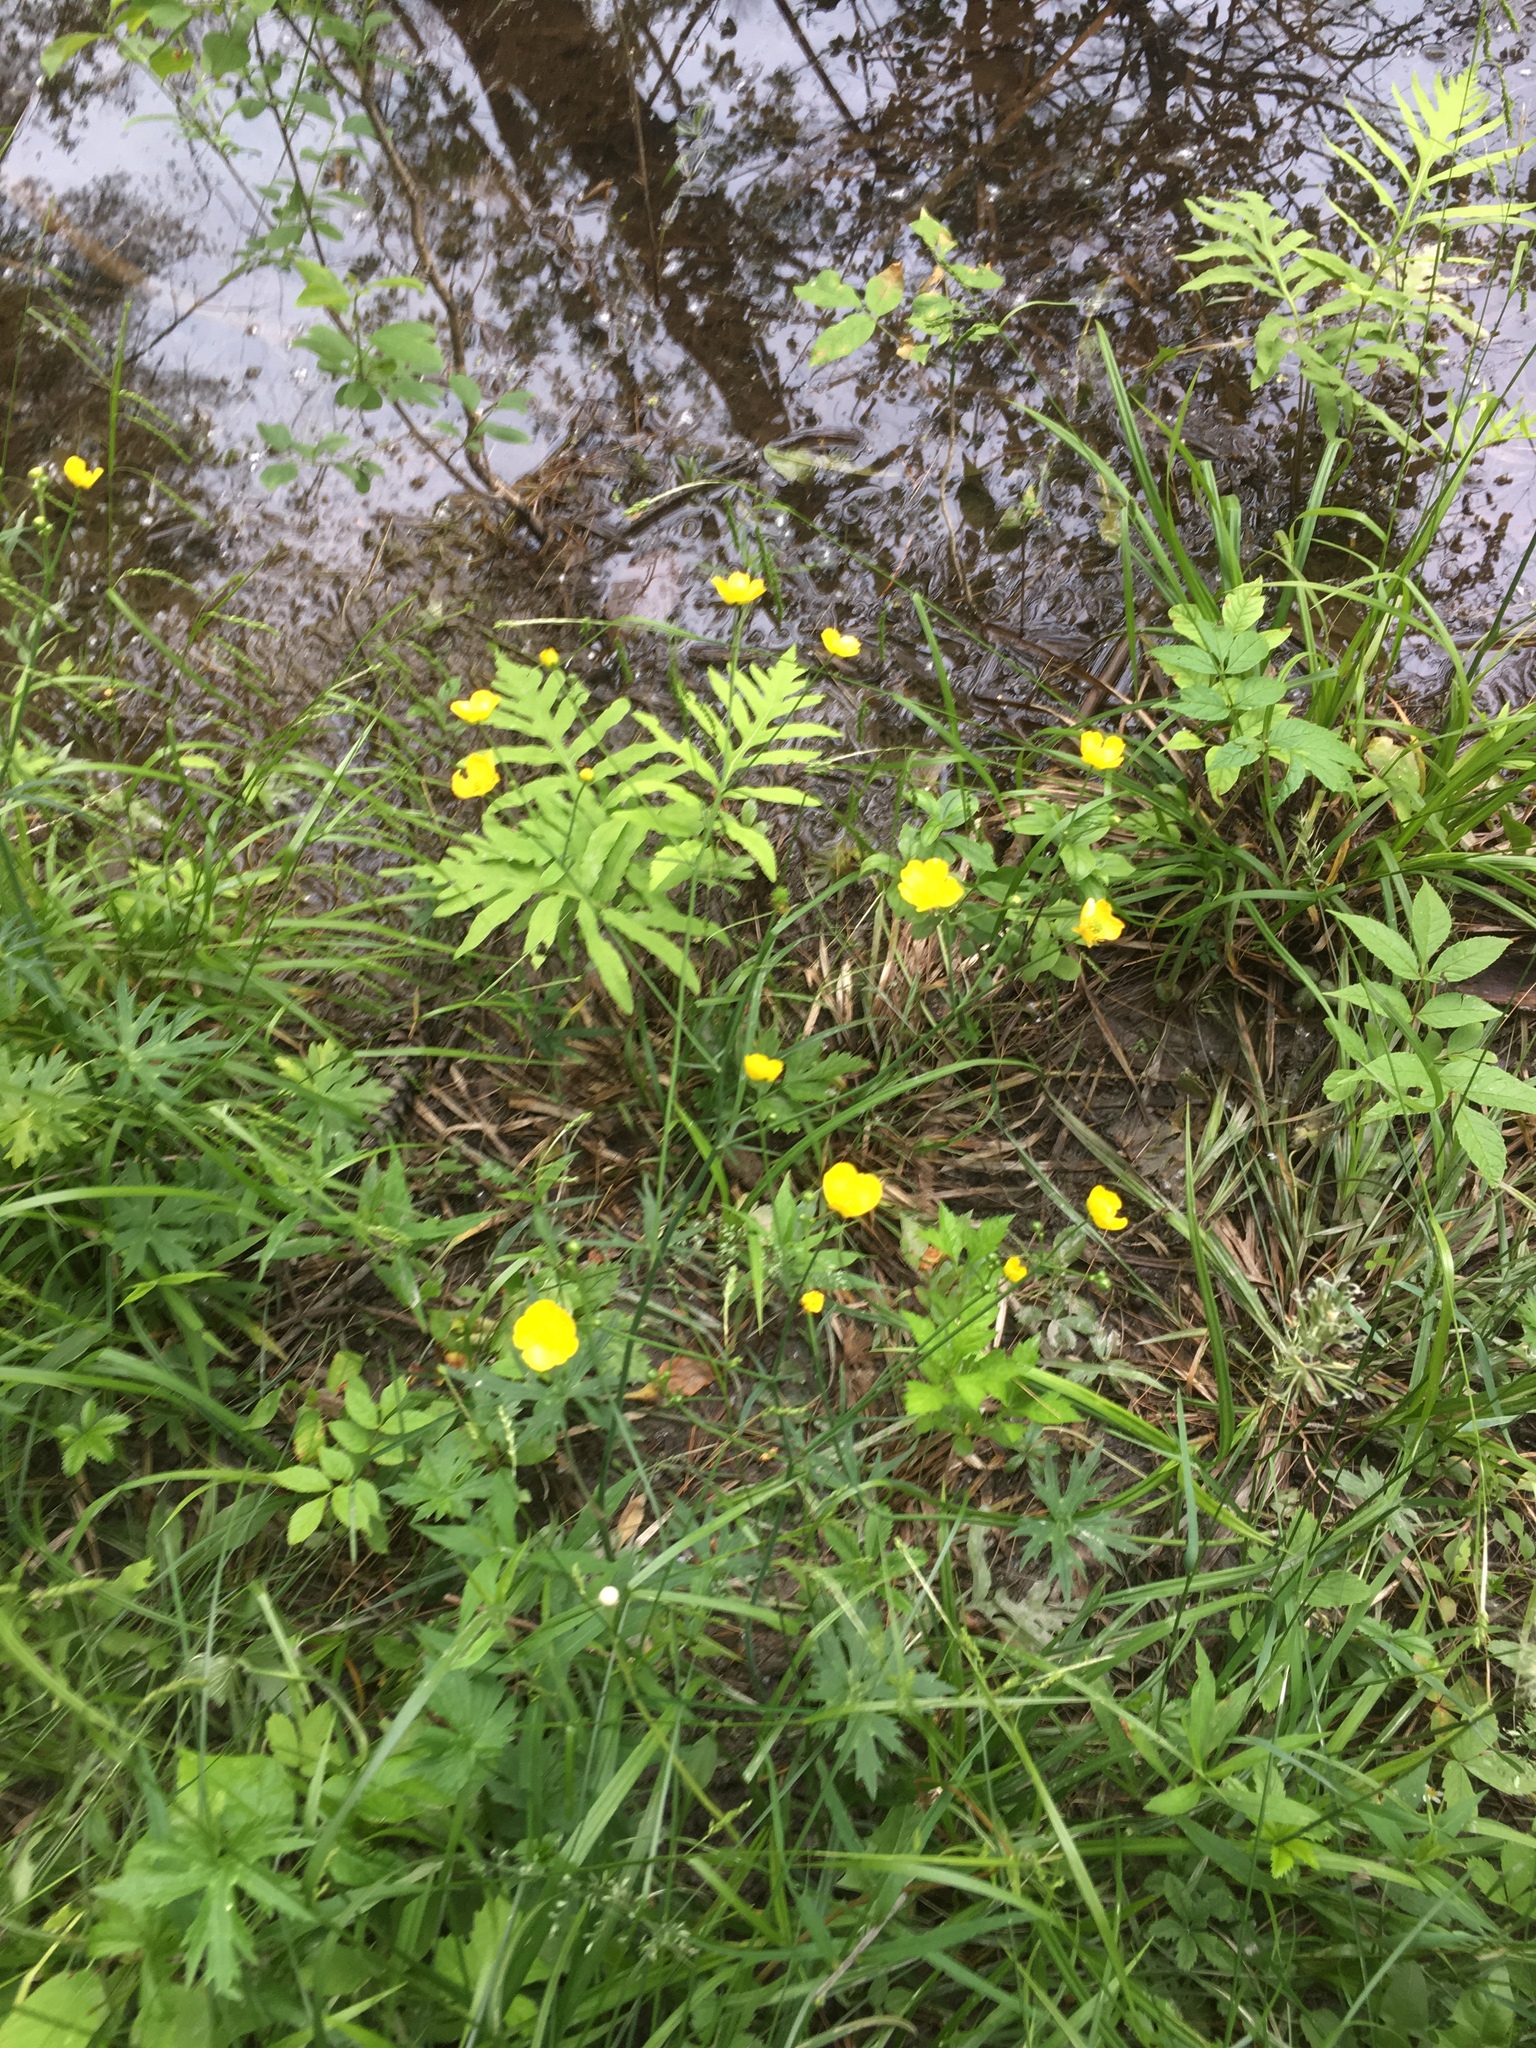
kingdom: Plantae
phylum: Tracheophyta
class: Magnoliopsida
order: Ranunculales
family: Ranunculaceae
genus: Ranunculus
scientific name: Ranunculus acris
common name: Meadow buttercup
